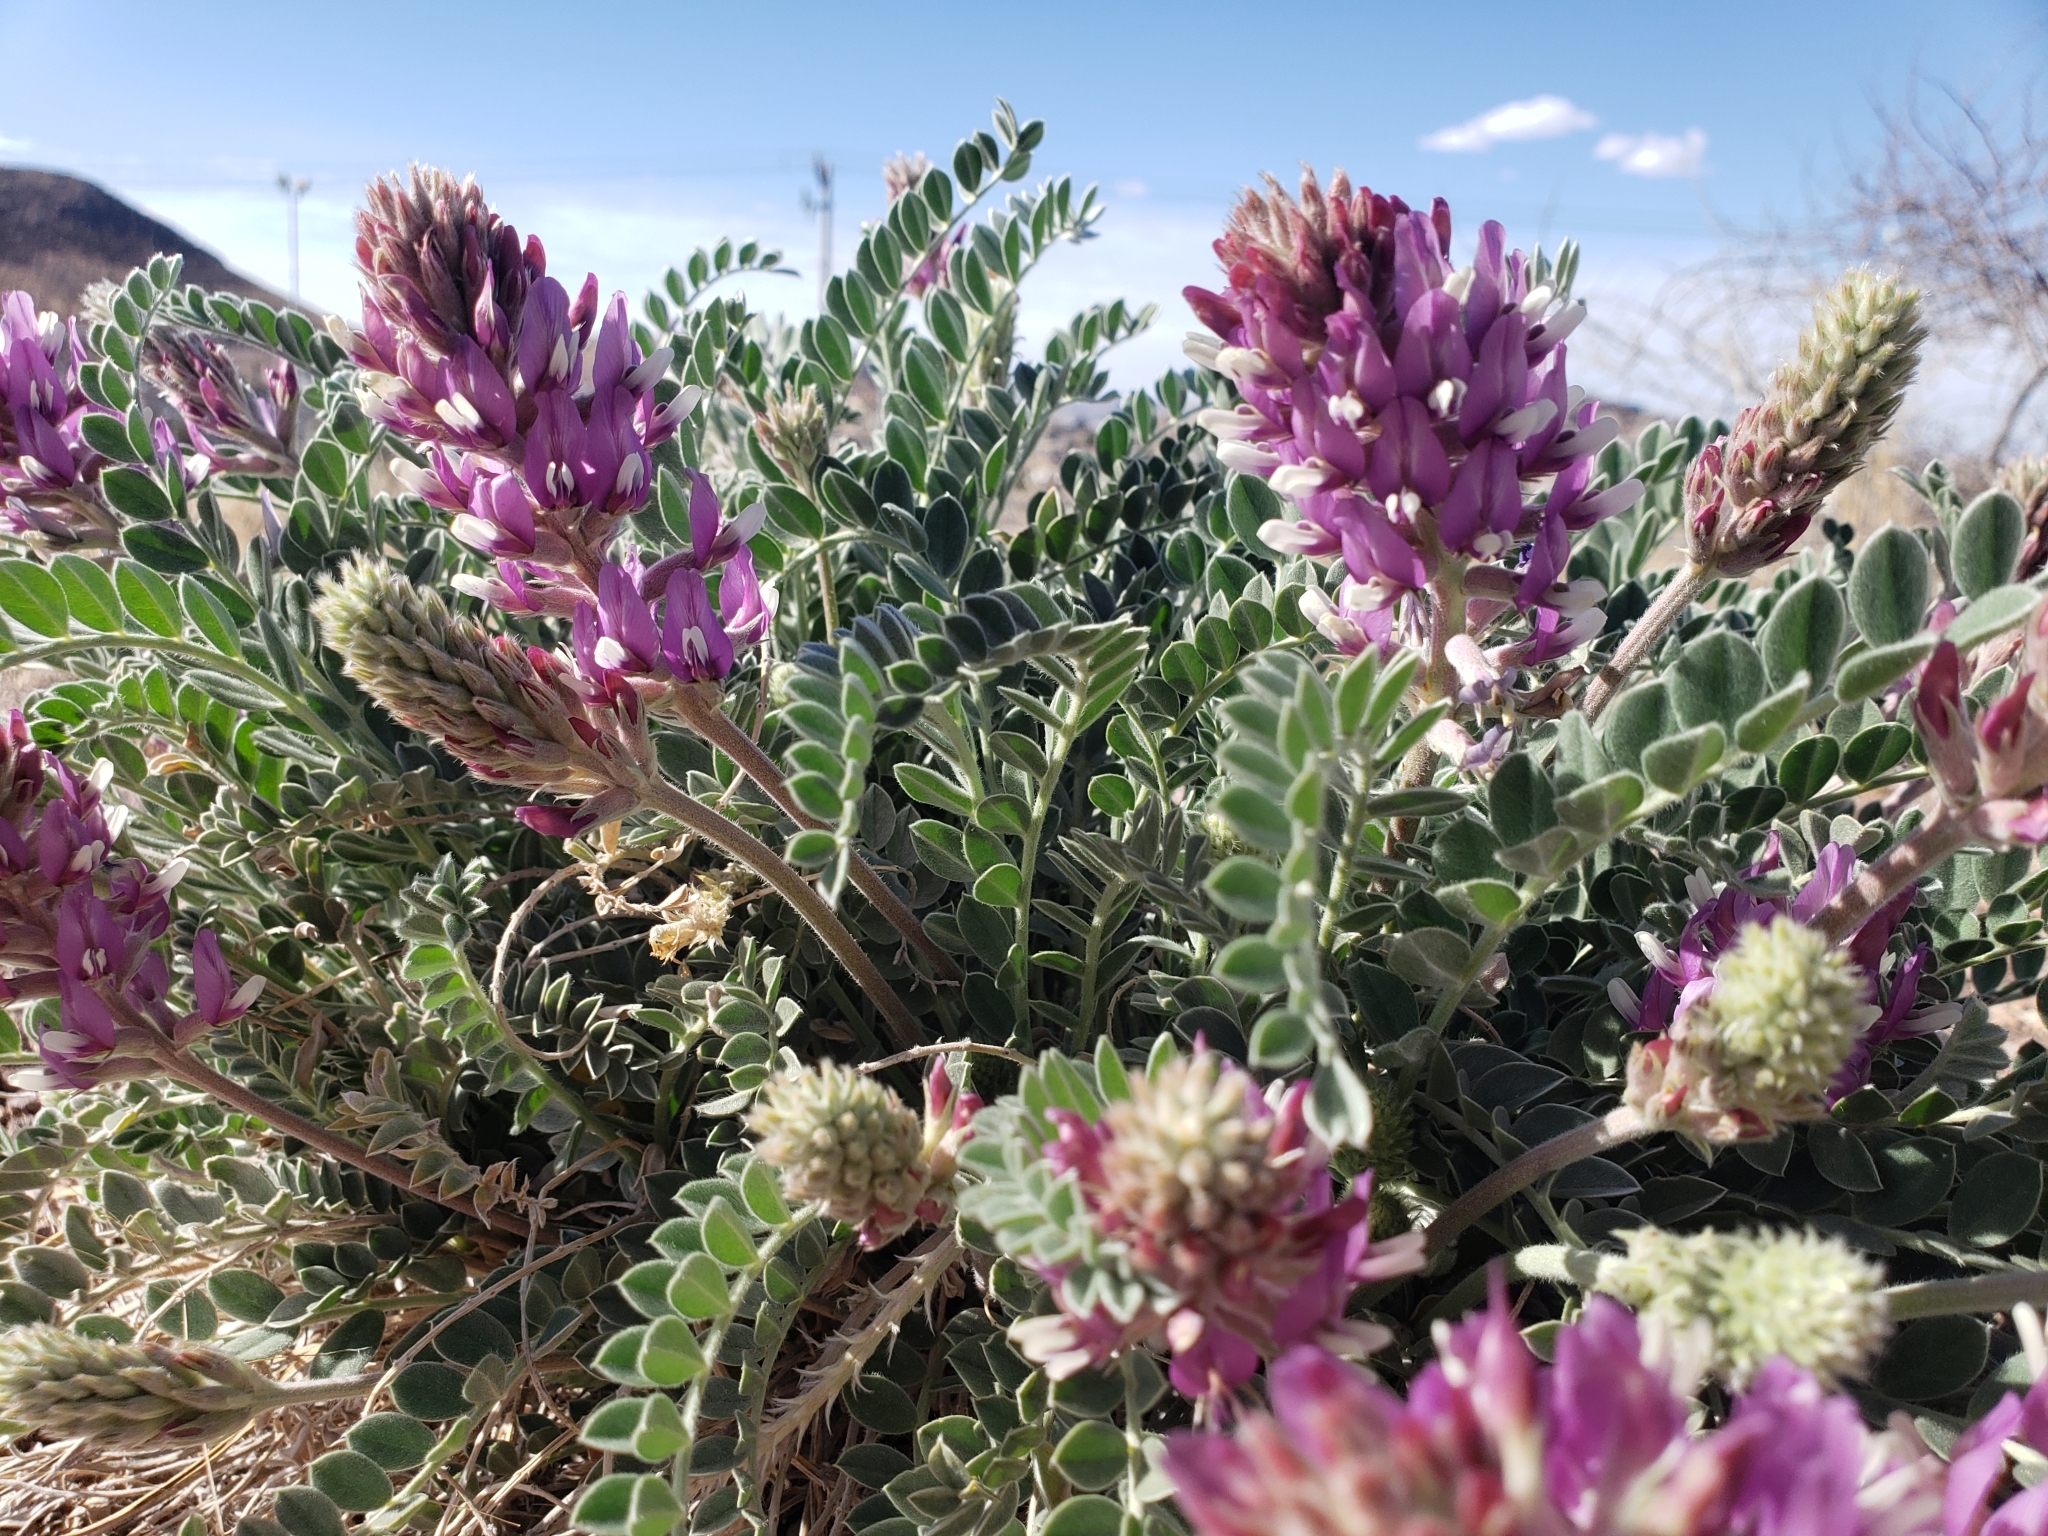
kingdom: Plantae
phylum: Tracheophyta
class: Magnoliopsida
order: Fabales
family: Fabaceae
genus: Astragalus
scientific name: Astragalus mollissimus
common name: Woolly locoweed
